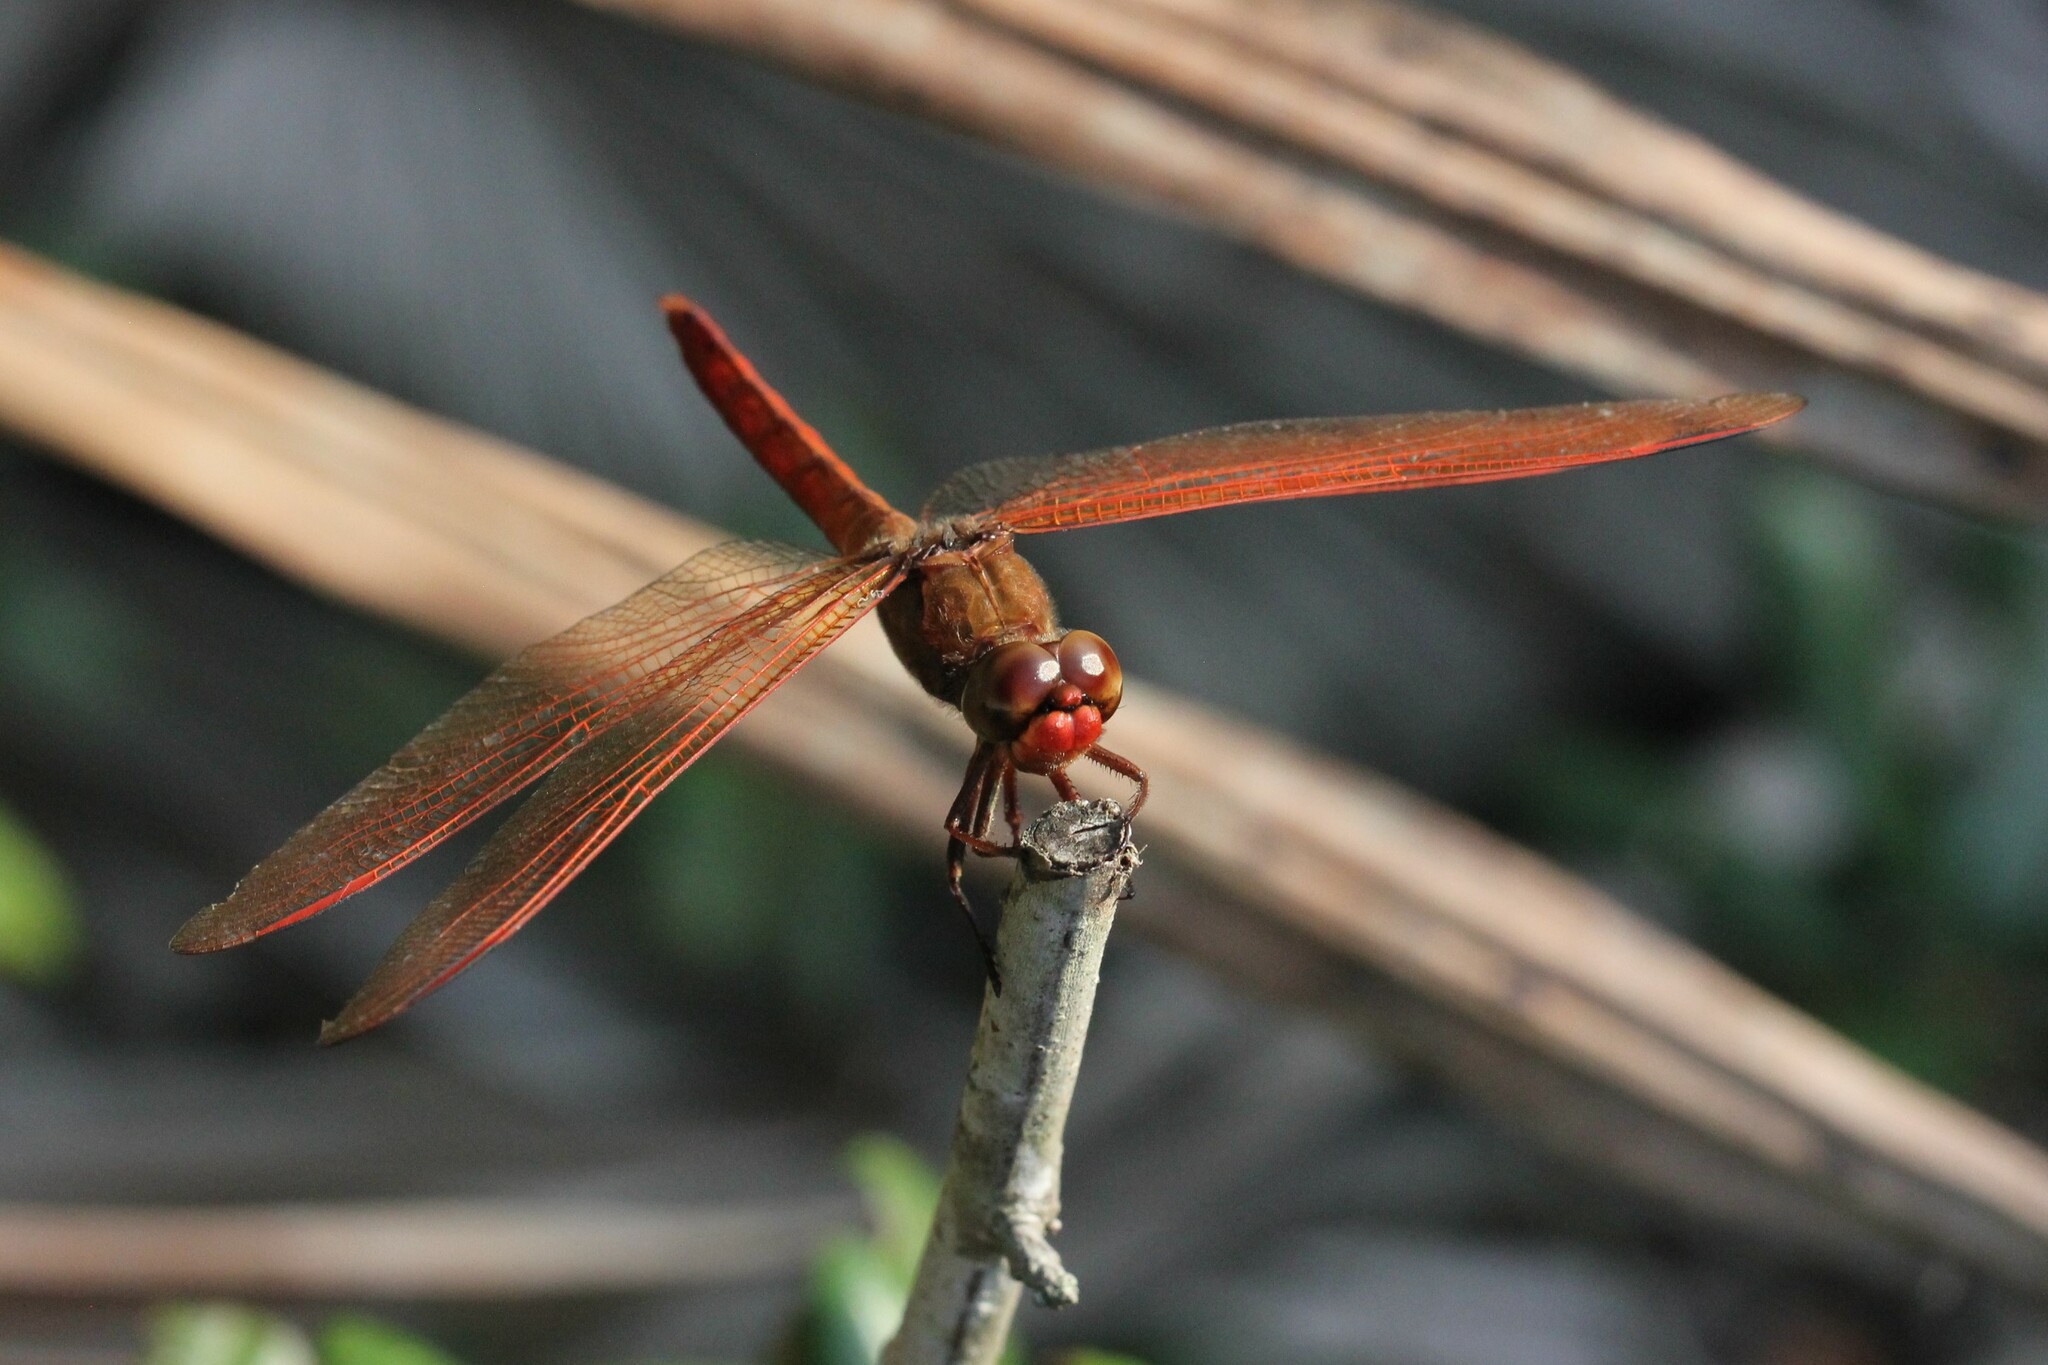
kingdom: Animalia
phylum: Arthropoda
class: Insecta
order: Odonata
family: Libellulidae
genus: Libellula
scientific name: Libellula auripennis
